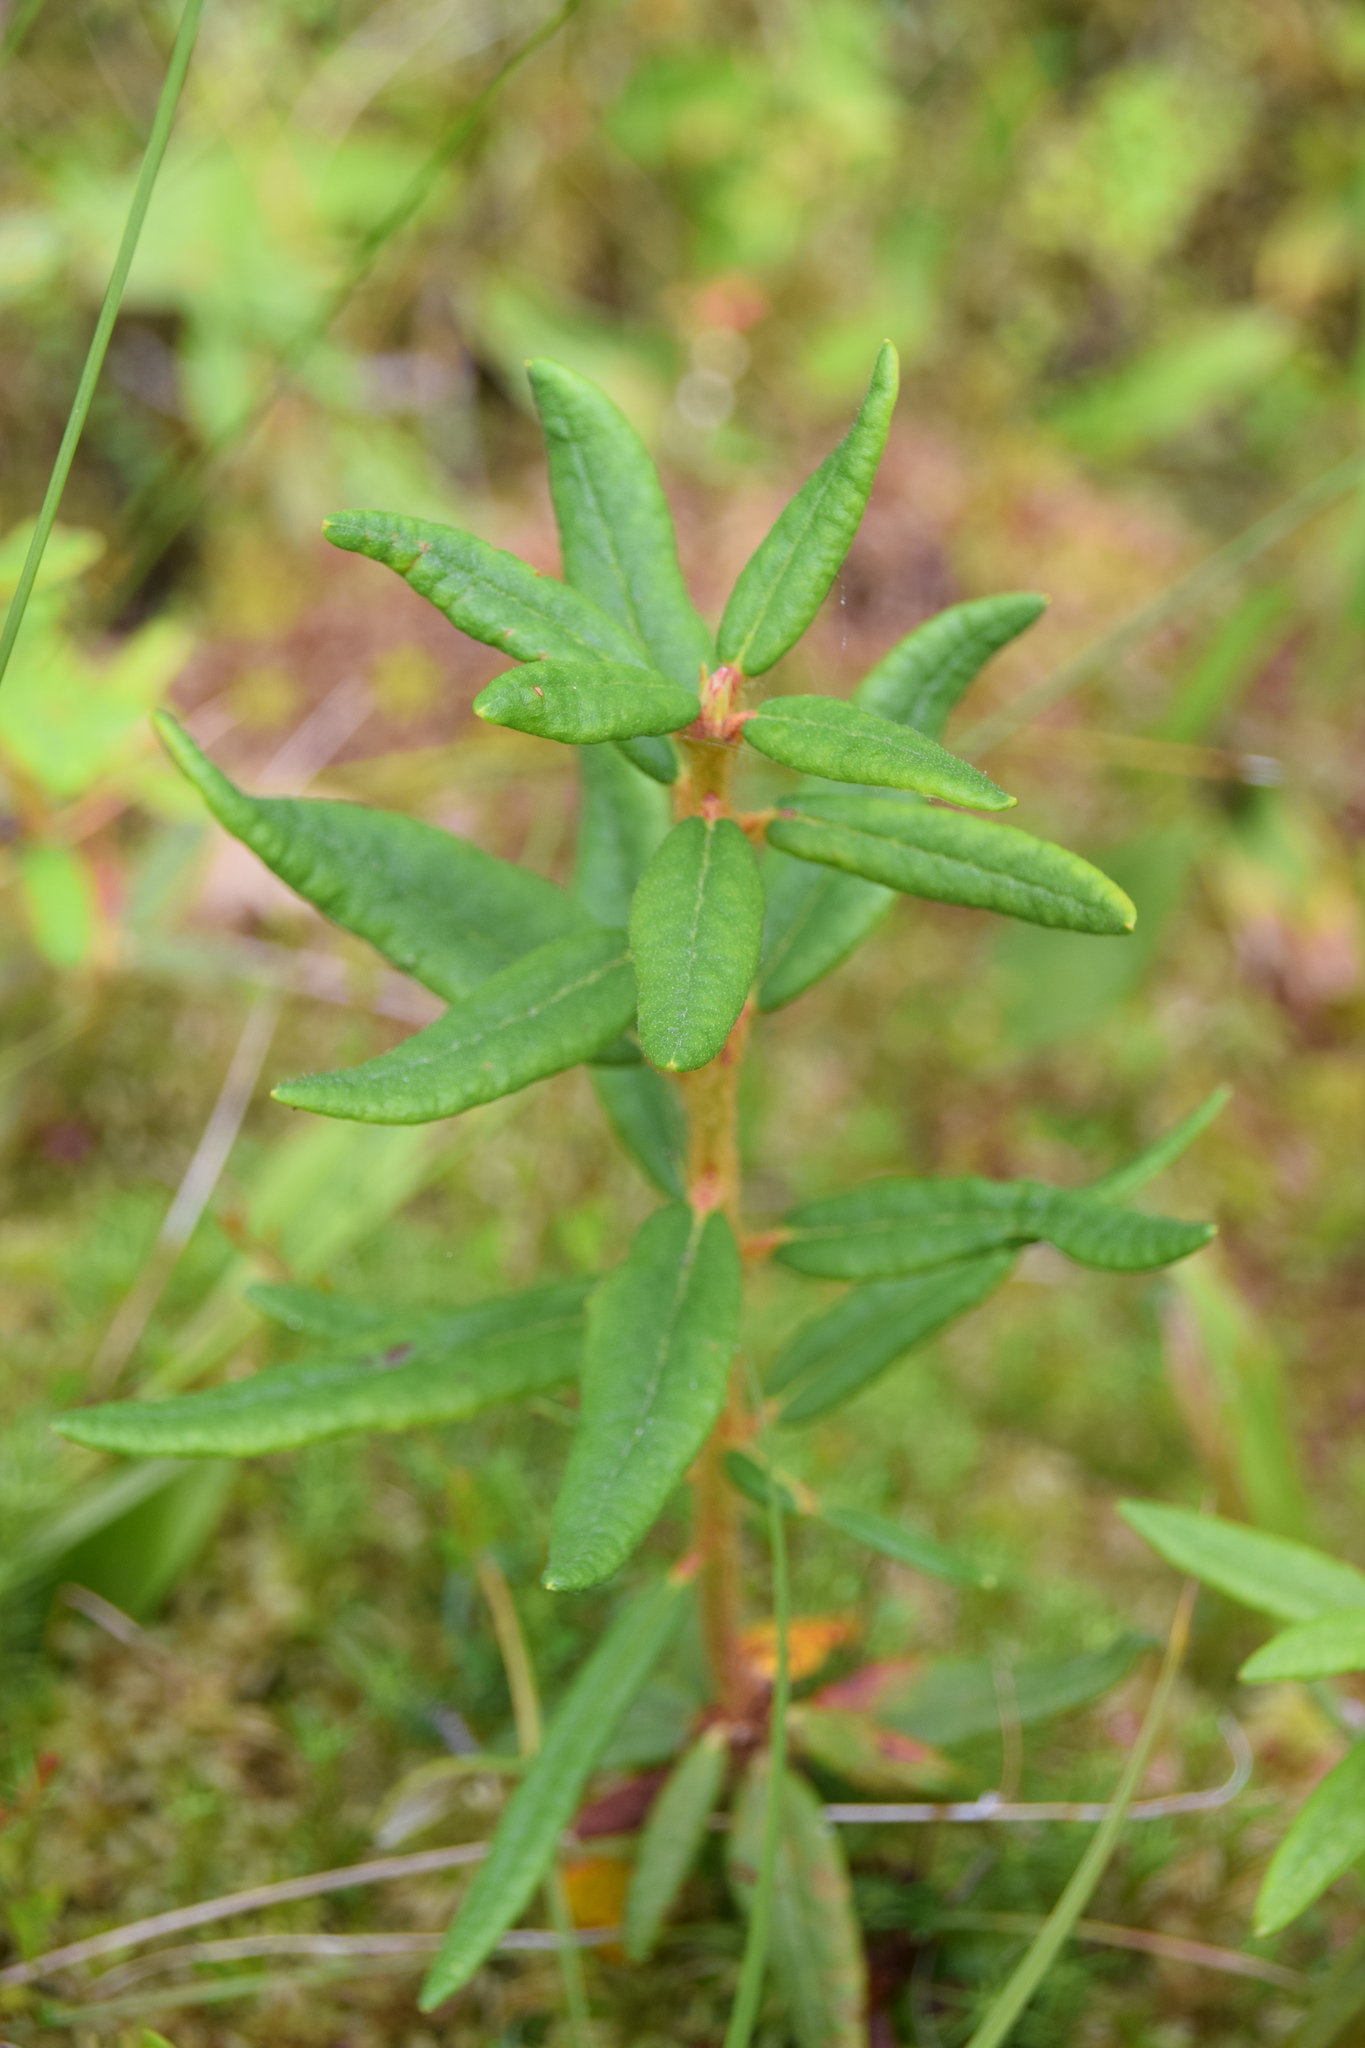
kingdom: Plantae
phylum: Tracheophyta
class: Magnoliopsida
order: Ericales
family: Ericaceae
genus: Rhododendron
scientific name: Rhododendron groenlandicum
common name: Bog labrador tea
